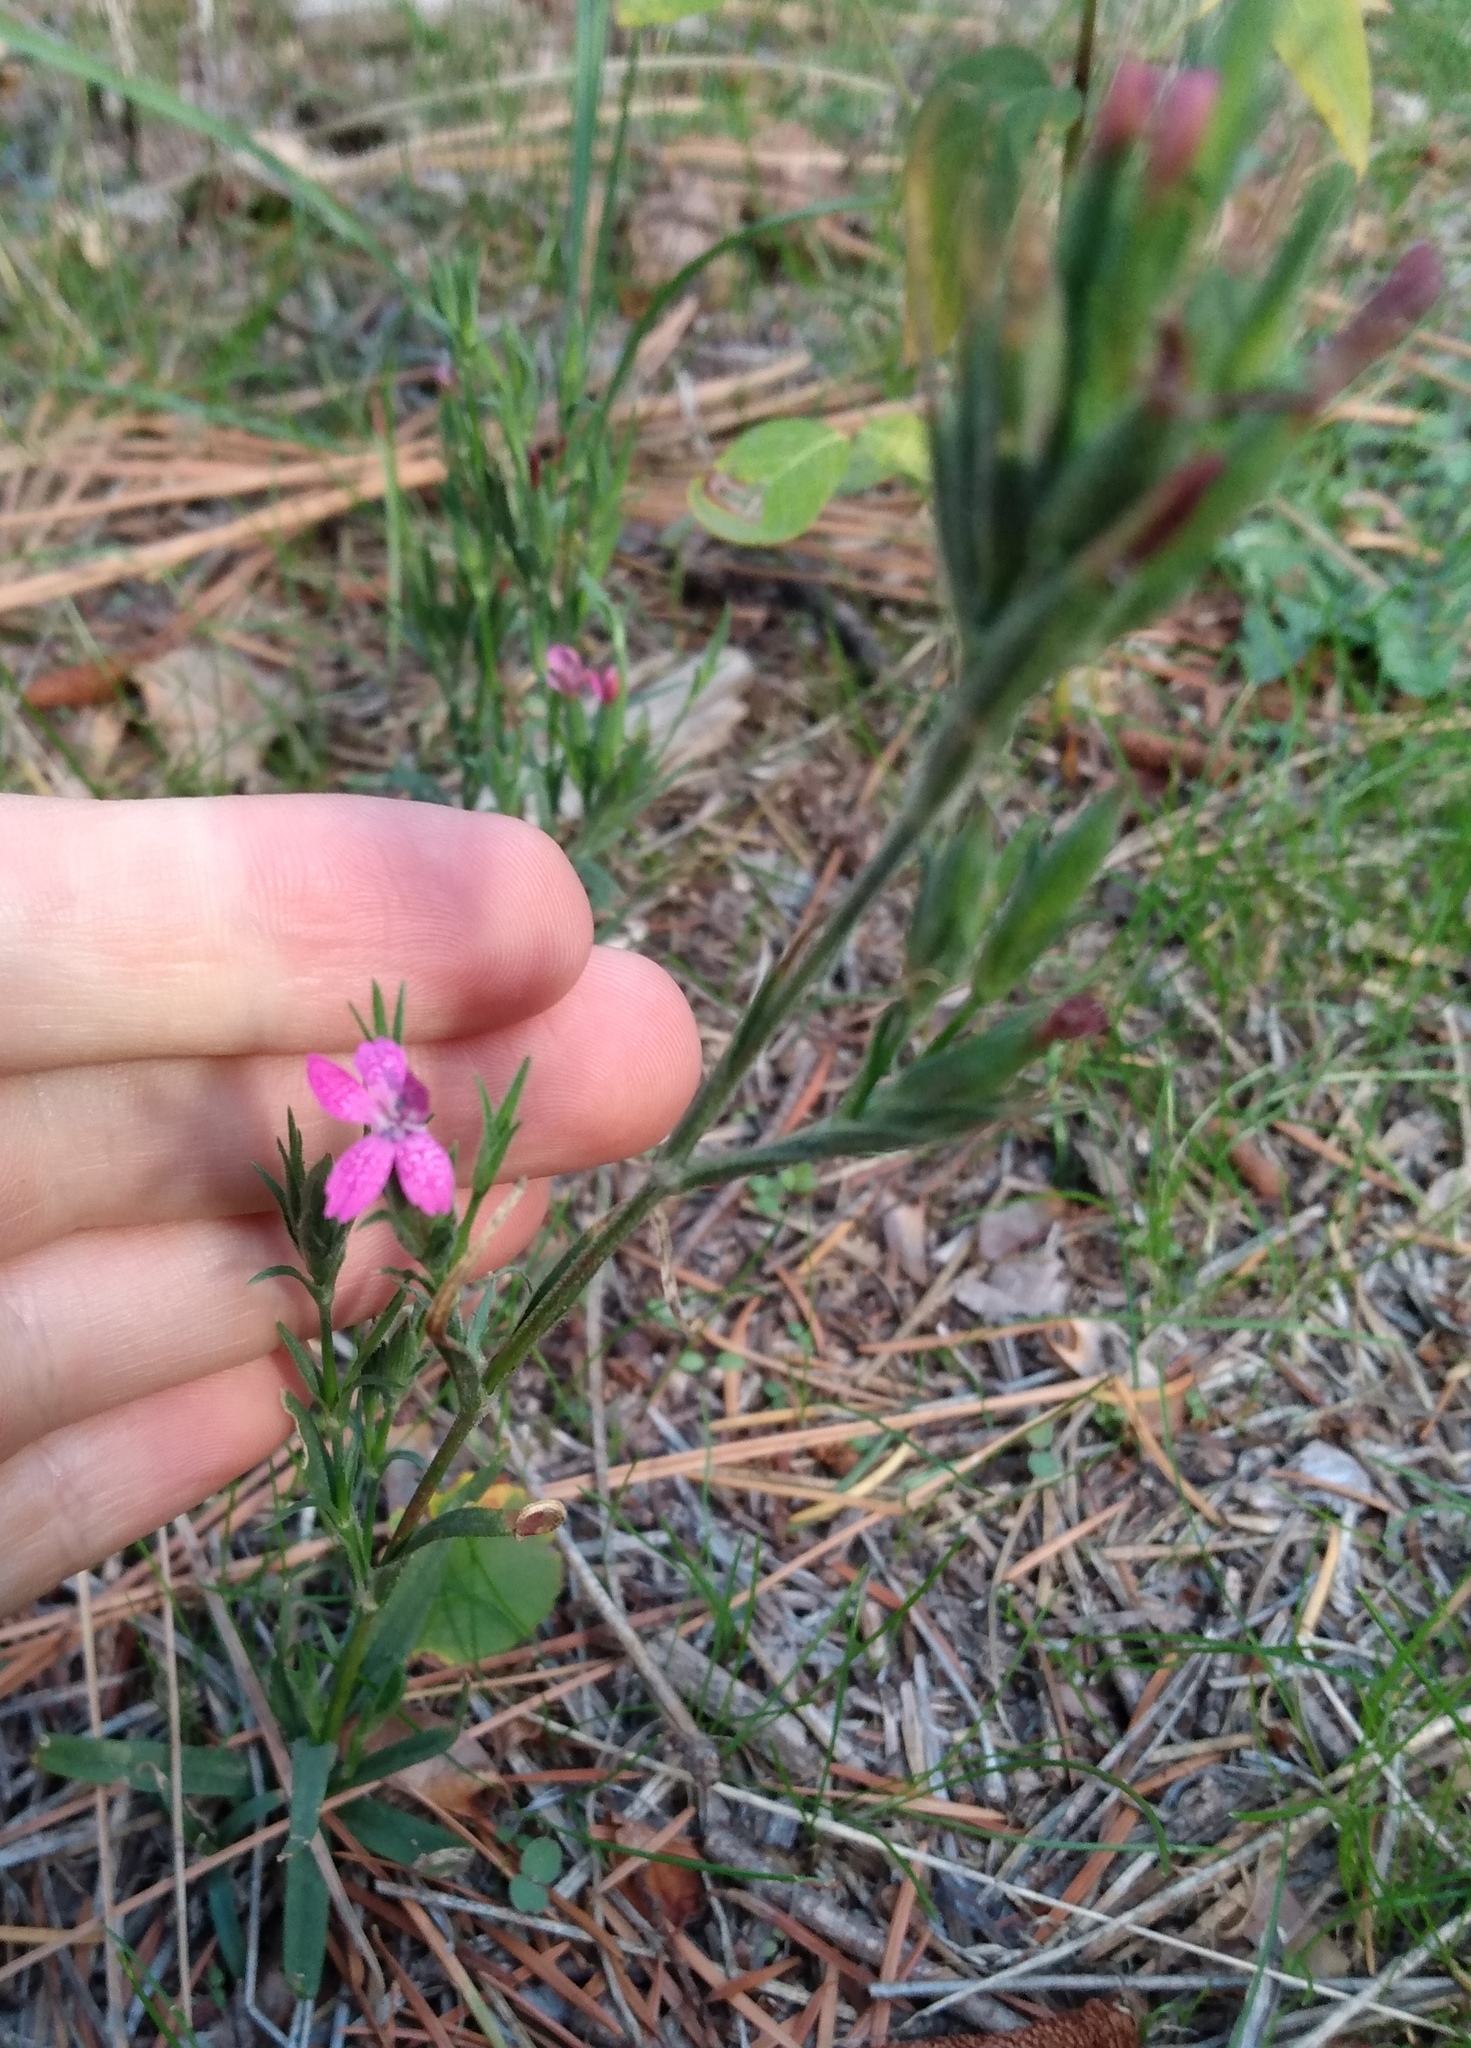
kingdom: Plantae
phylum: Tracheophyta
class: Magnoliopsida
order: Caryophyllales
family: Caryophyllaceae
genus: Dianthus
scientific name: Dianthus armeria
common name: Deptford pink
